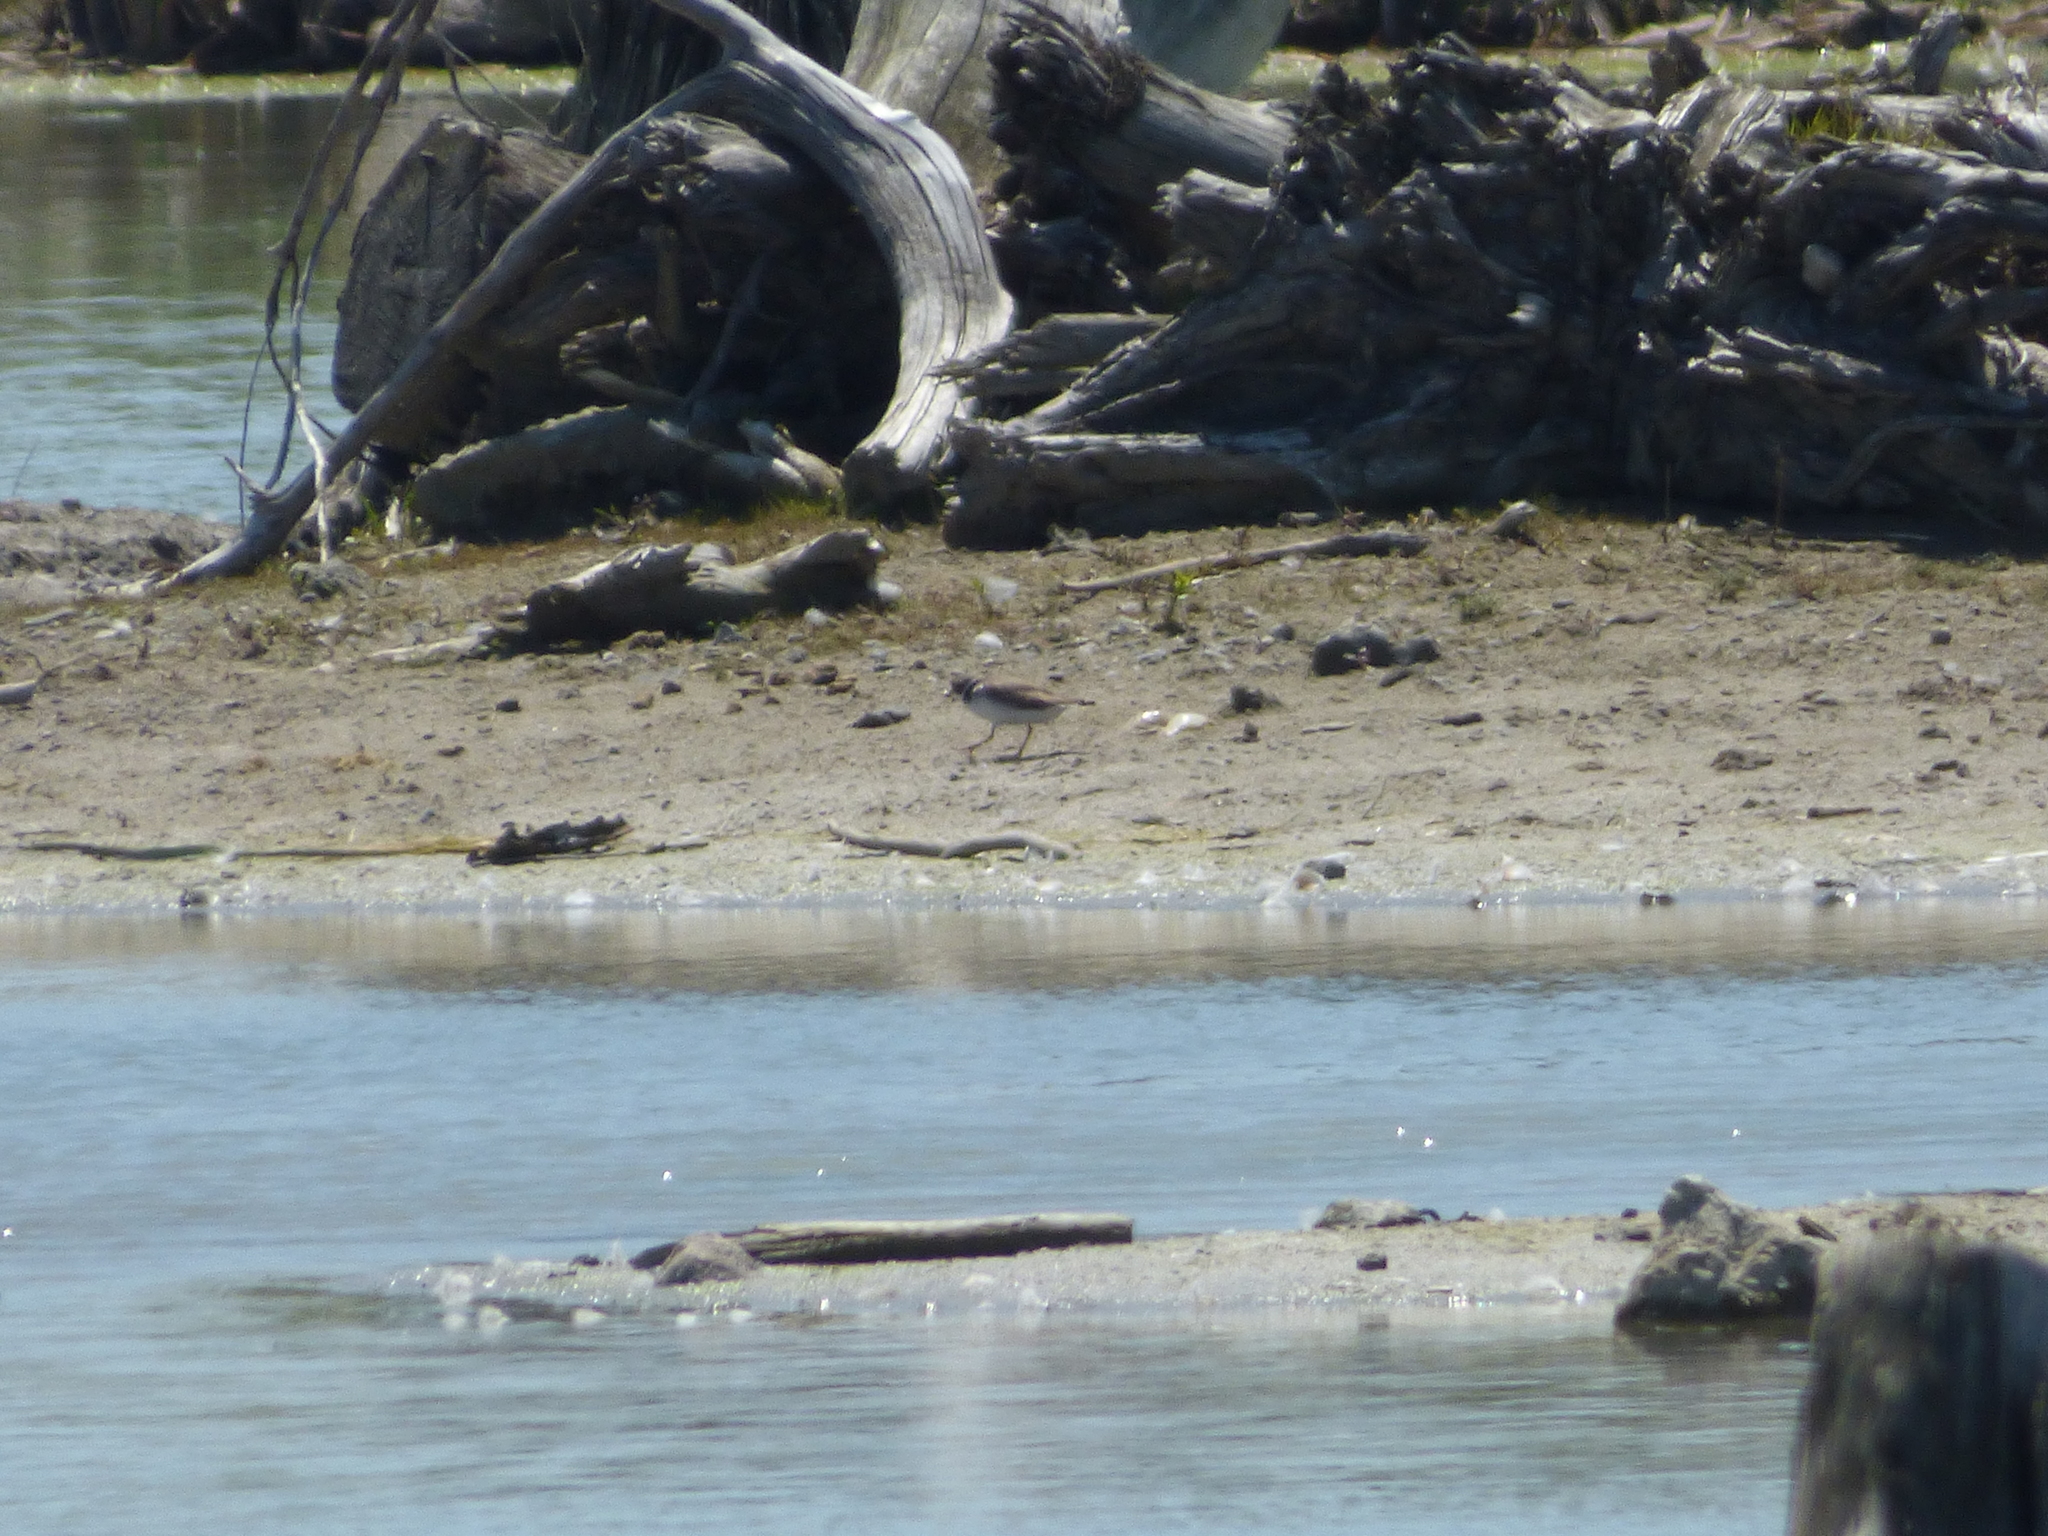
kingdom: Animalia
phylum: Chordata
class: Aves
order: Charadriiformes
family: Charadriidae
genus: Charadrius
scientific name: Charadrius semipalmatus
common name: Semipalmated plover
